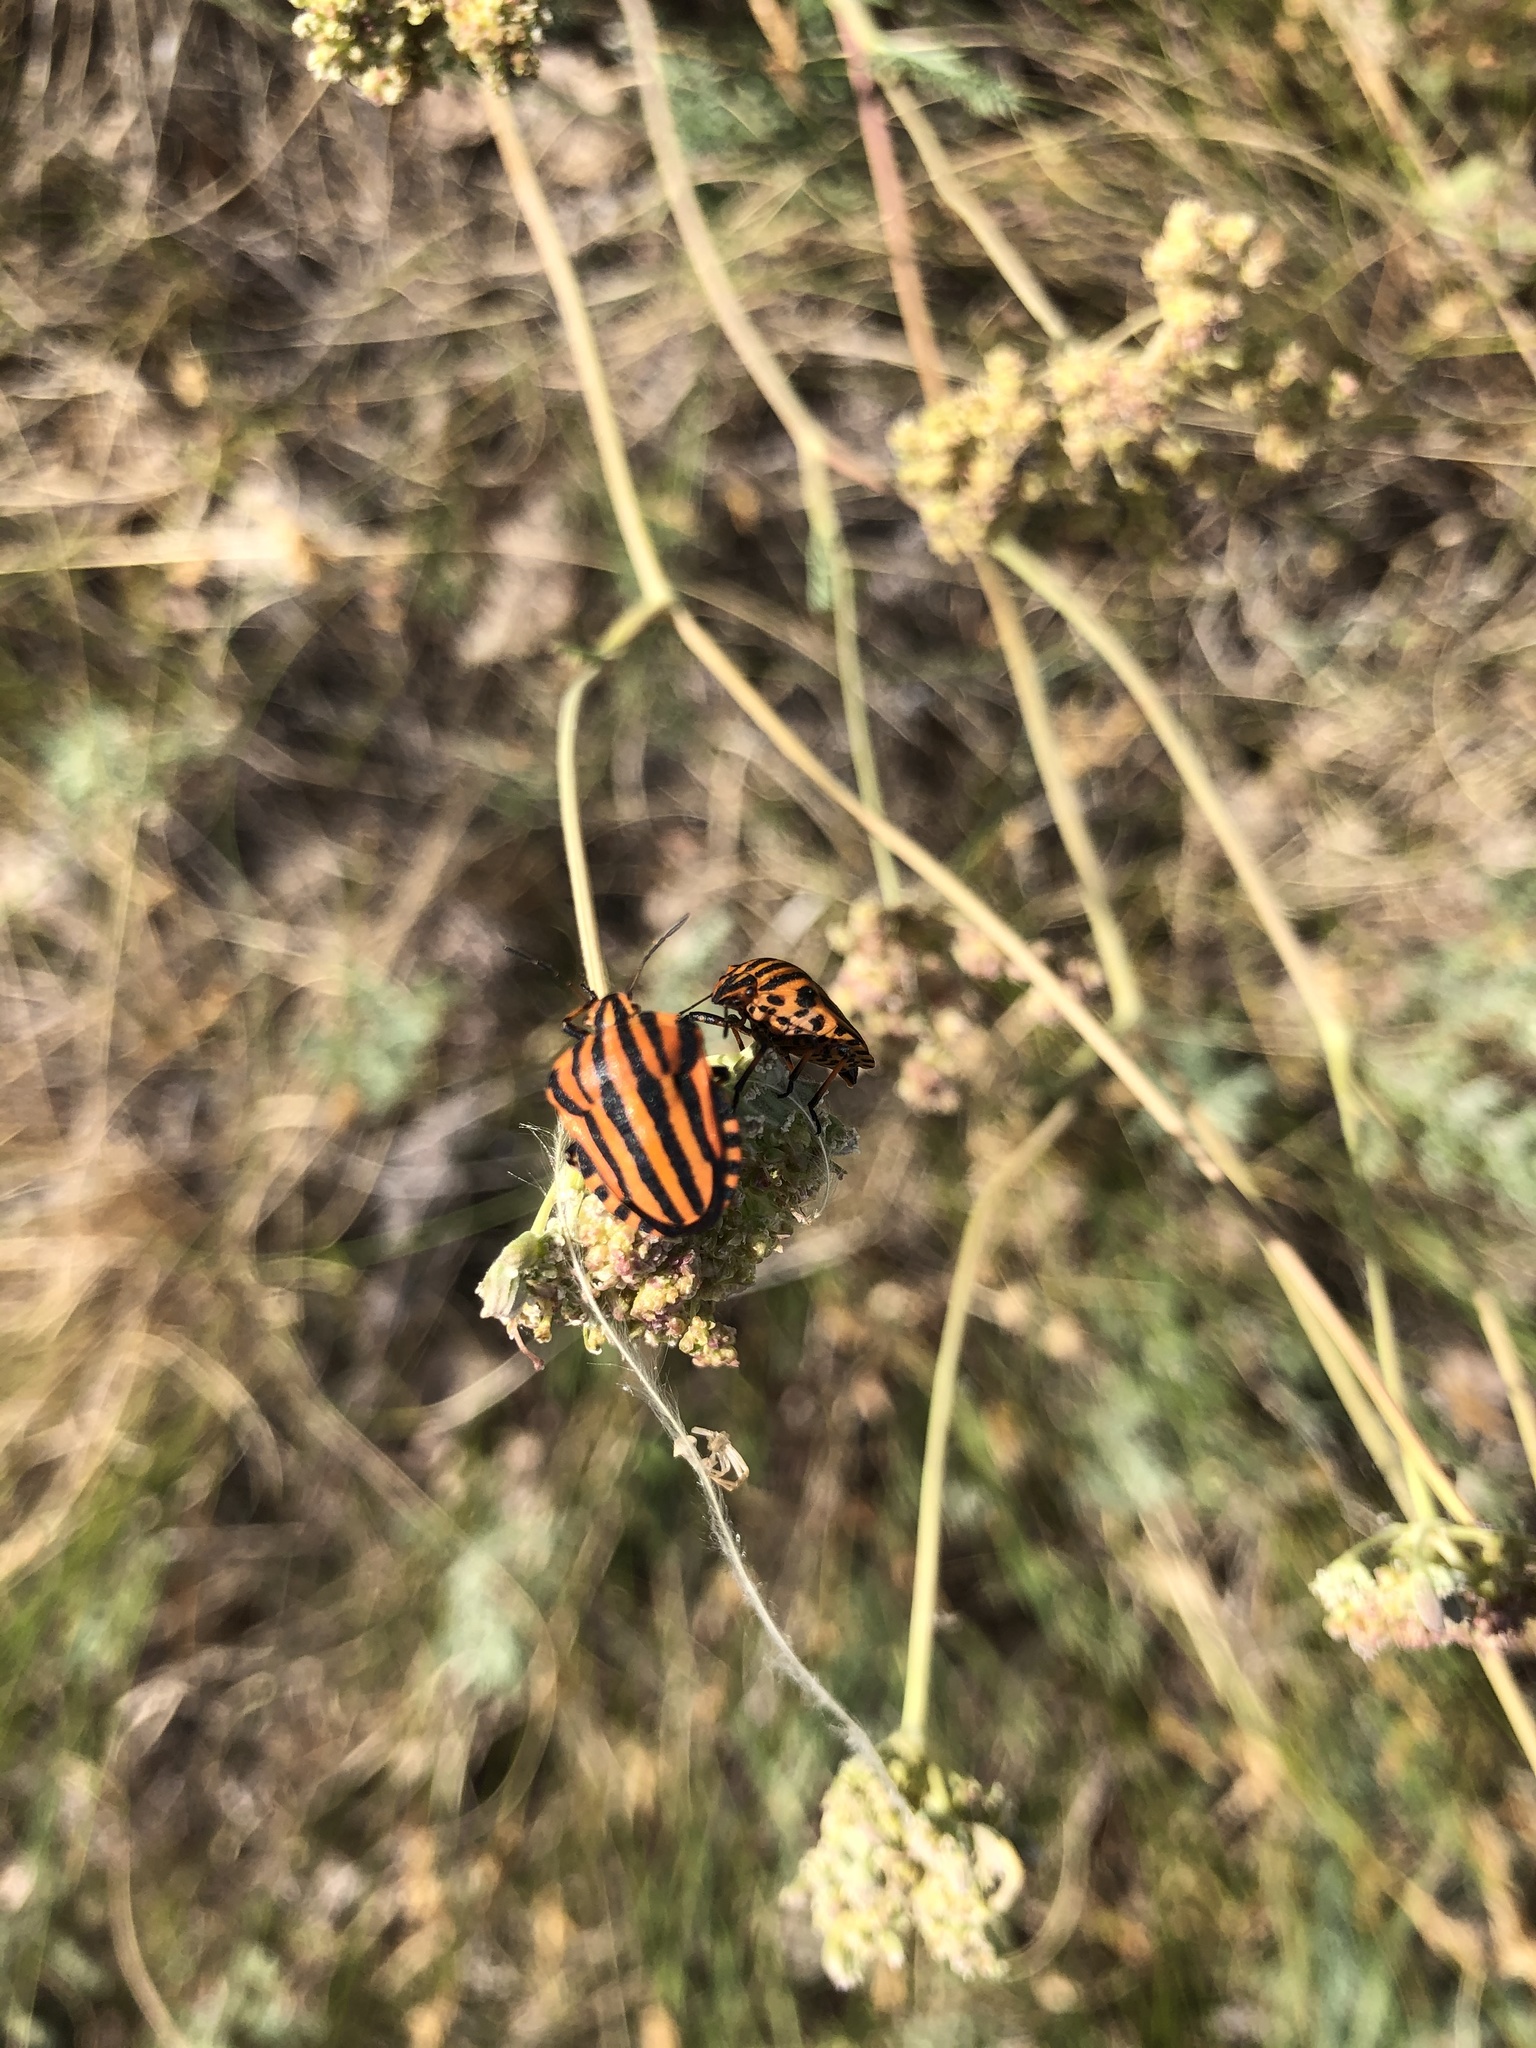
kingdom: Animalia
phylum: Arthropoda
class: Insecta
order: Hemiptera
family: Pentatomidae
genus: Graphosoma
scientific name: Graphosoma italicum
